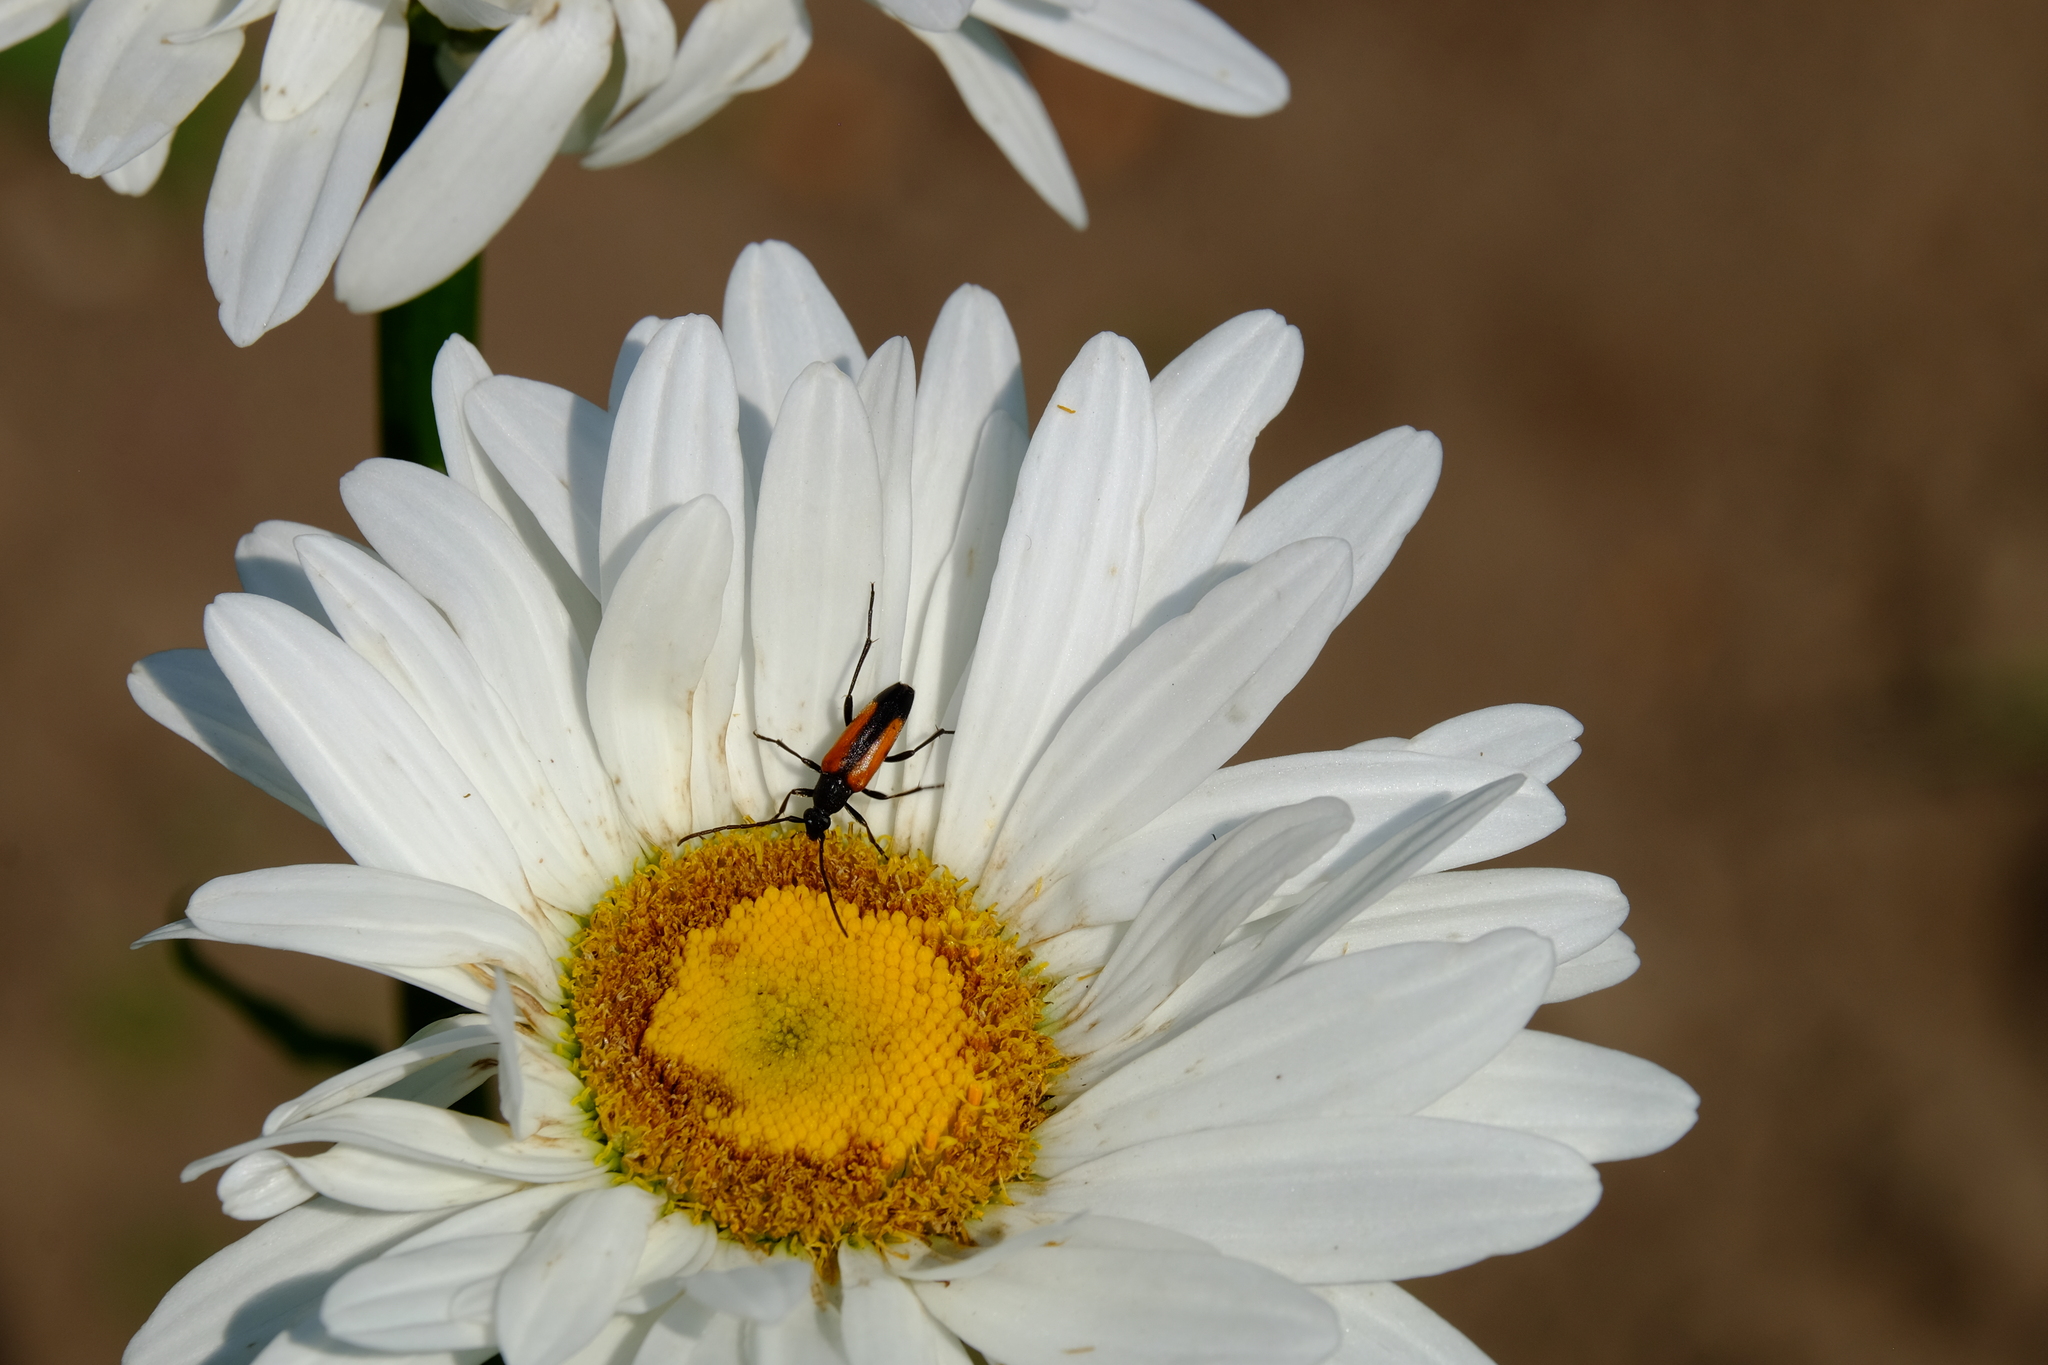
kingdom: Animalia
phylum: Arthropoda
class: Insecta
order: Coleoptera
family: Cerambycidae
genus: Stenurella
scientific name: Stenurella melanura
